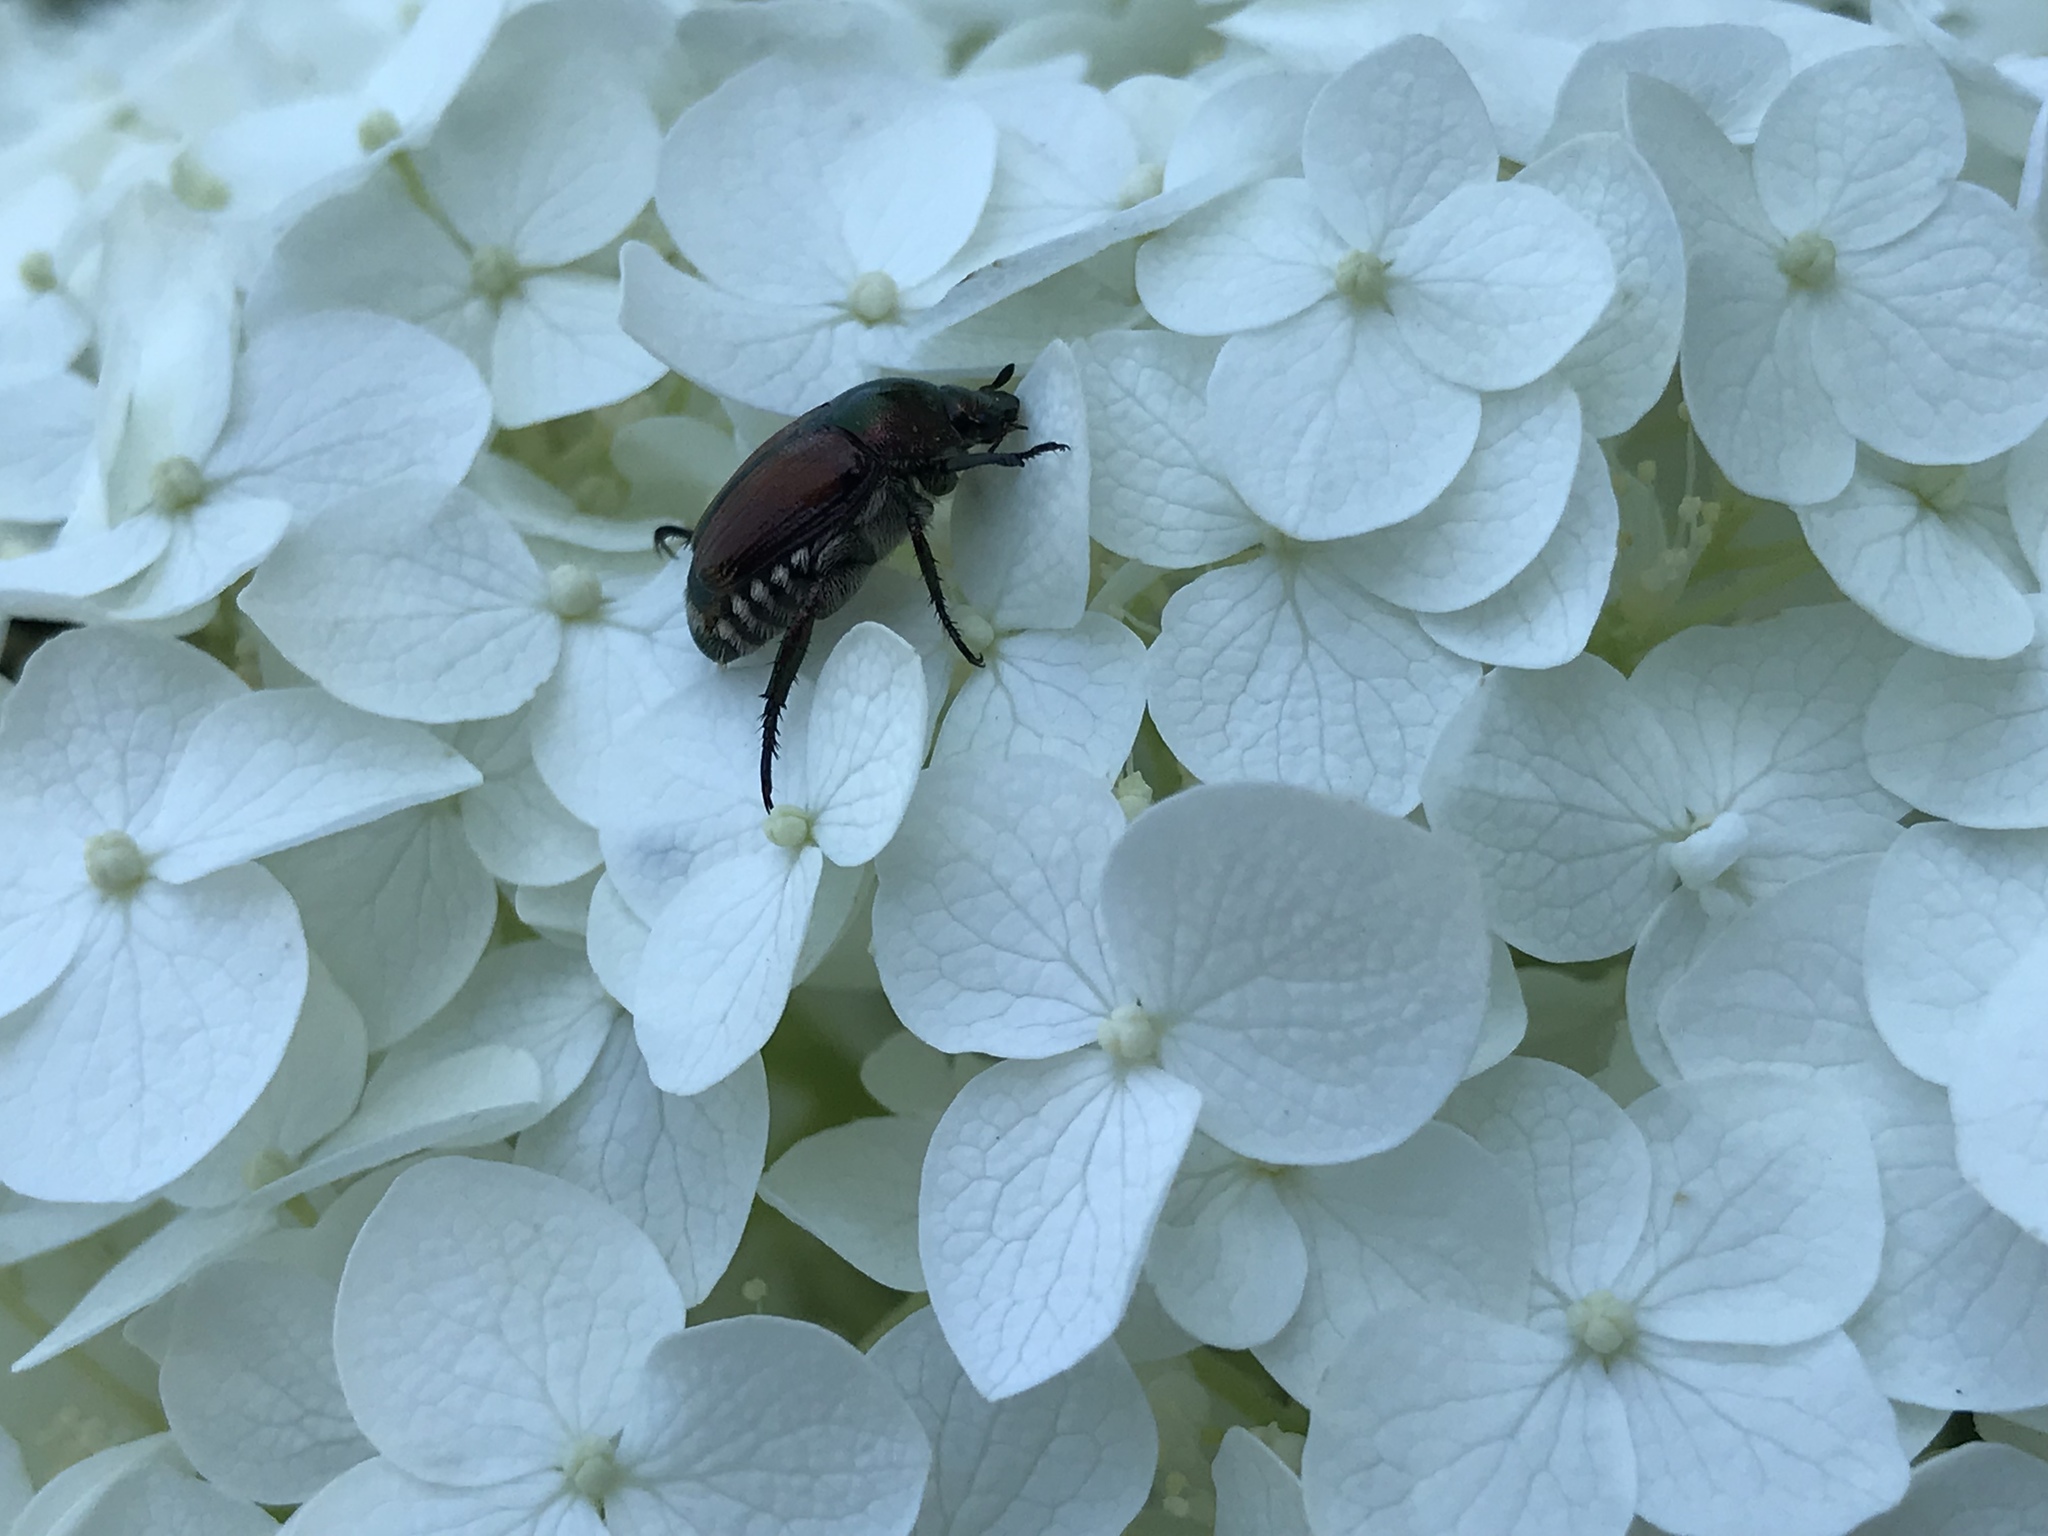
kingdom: Animalia
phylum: Arthropoda
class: Insecta
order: Coleoptera
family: Scarabaeidae
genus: Popillia
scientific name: Popillia japonica
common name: Japanese beetle
